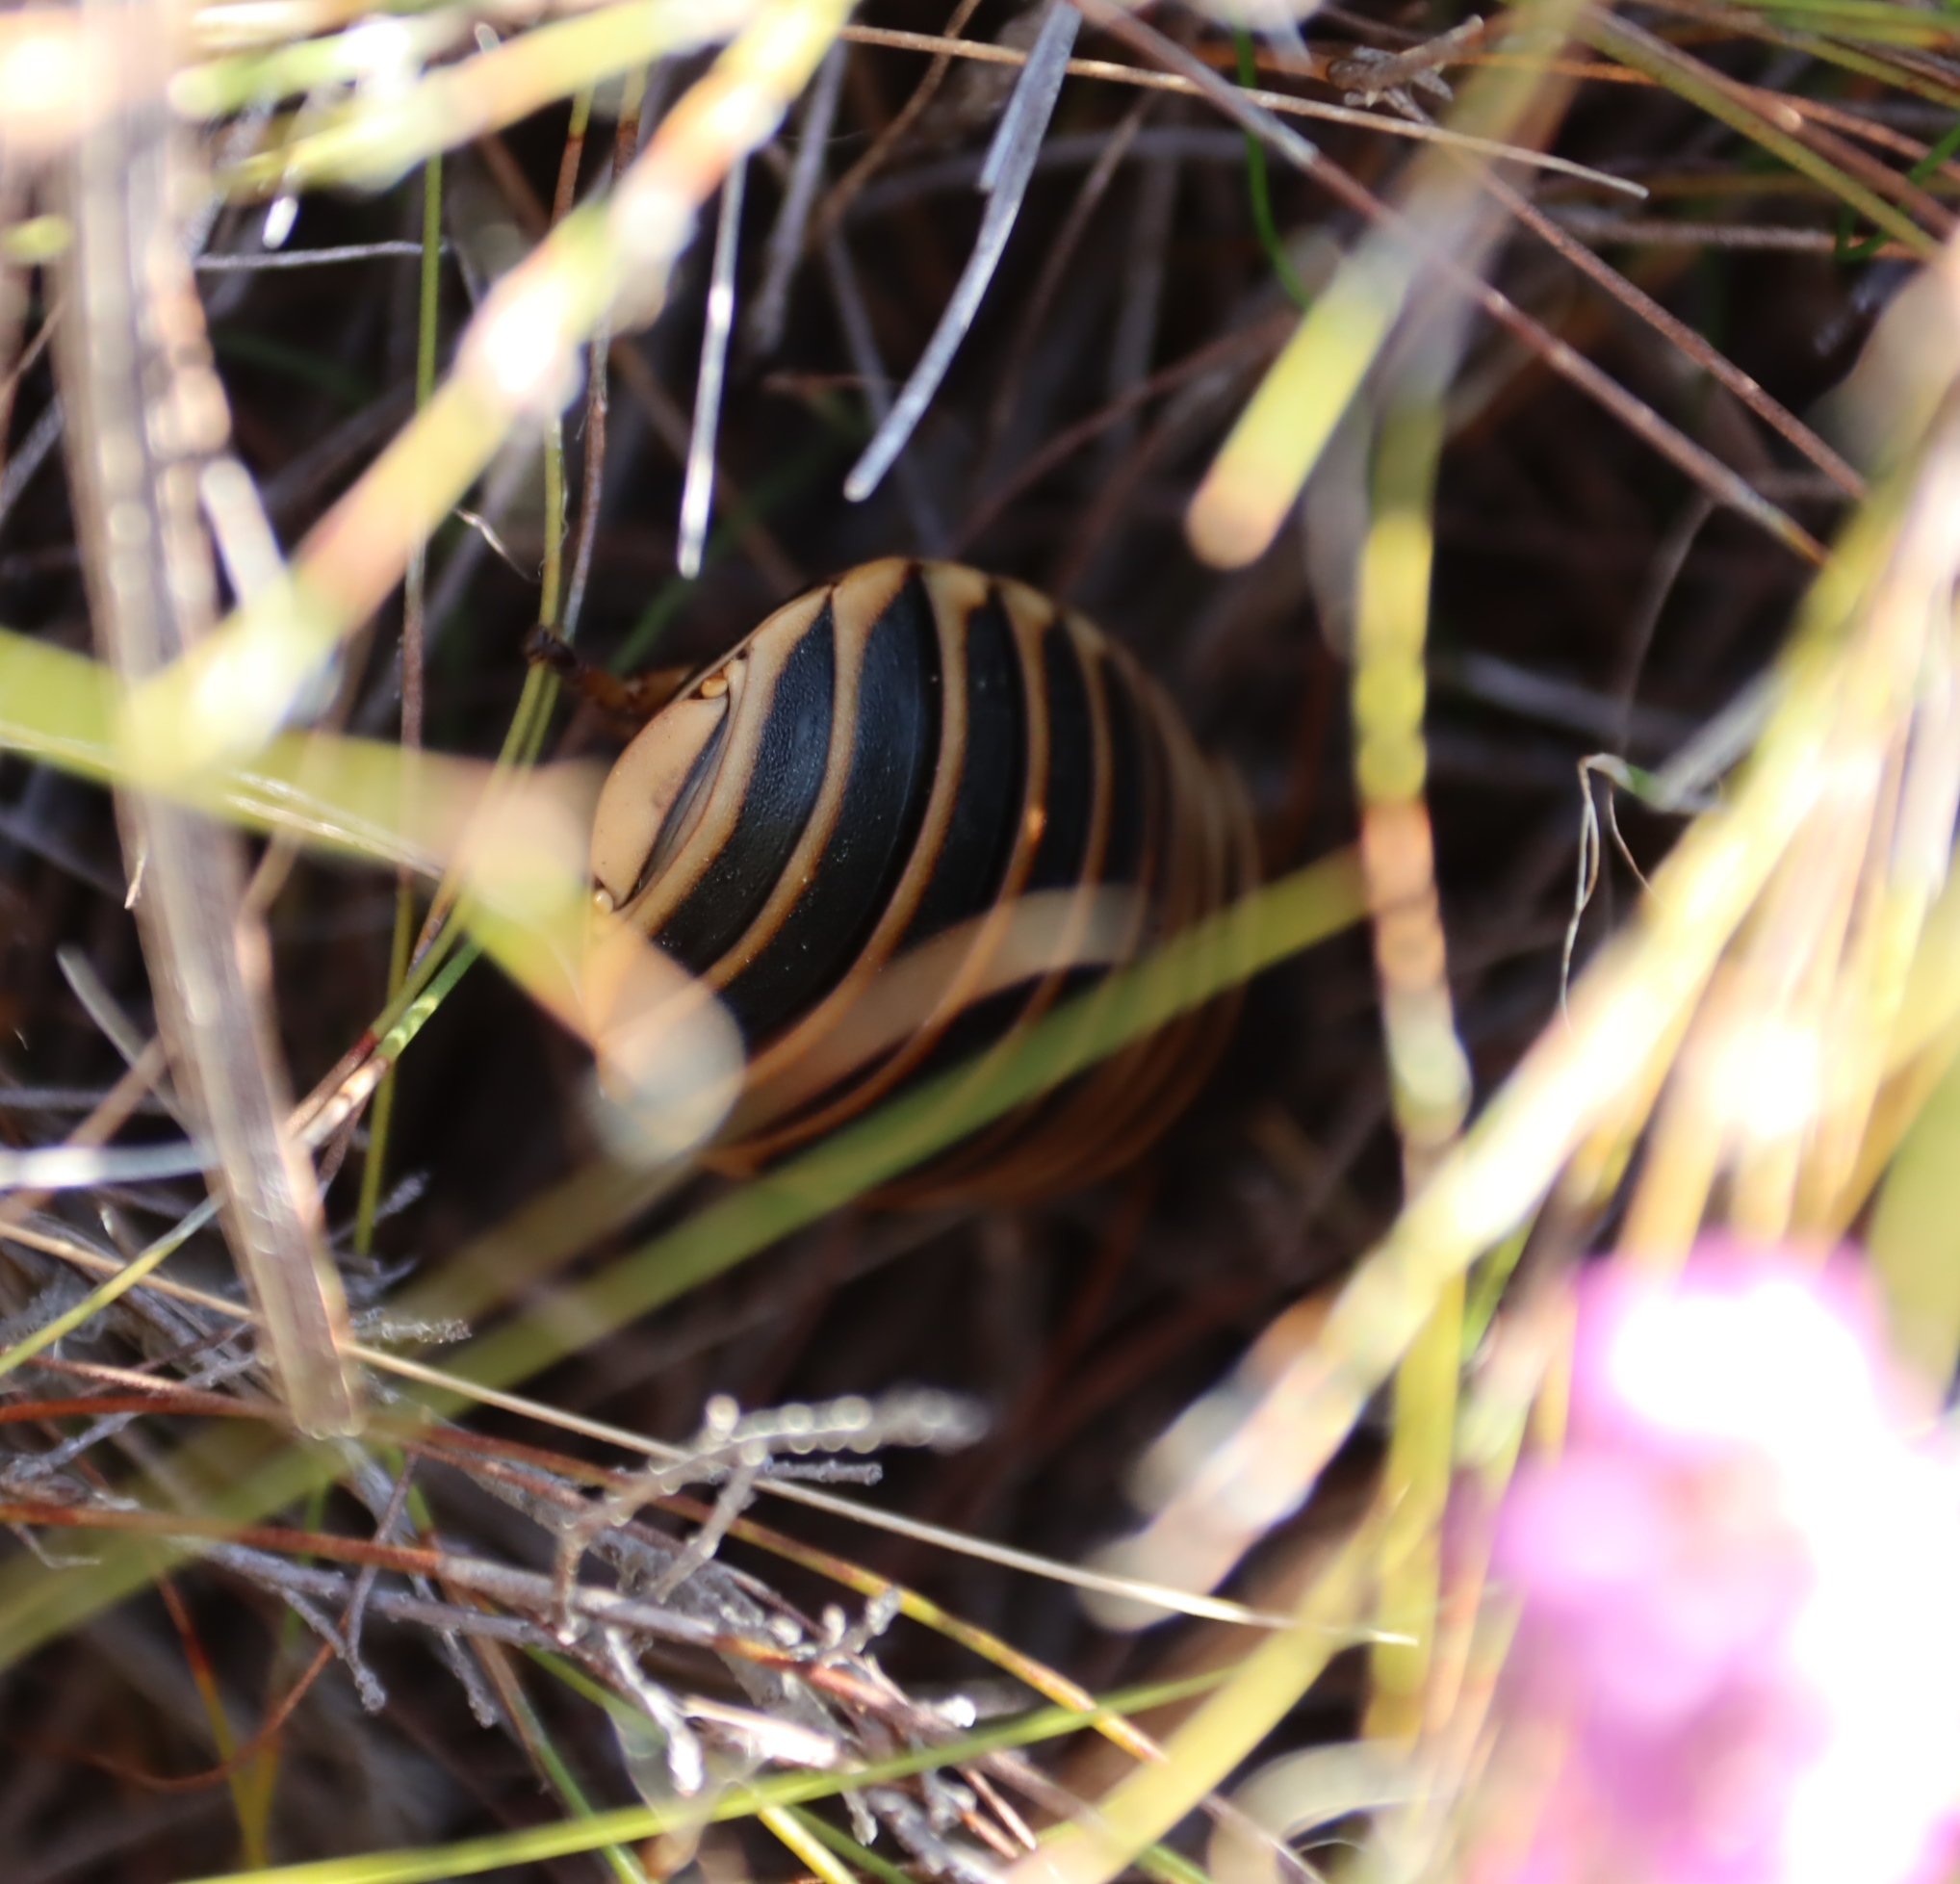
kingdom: Animalia
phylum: Arthropoda
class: Insecta
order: Blattodea
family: Blaberidae
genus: Aptera
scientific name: Aptera fusca
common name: Cape mountain cockroach
